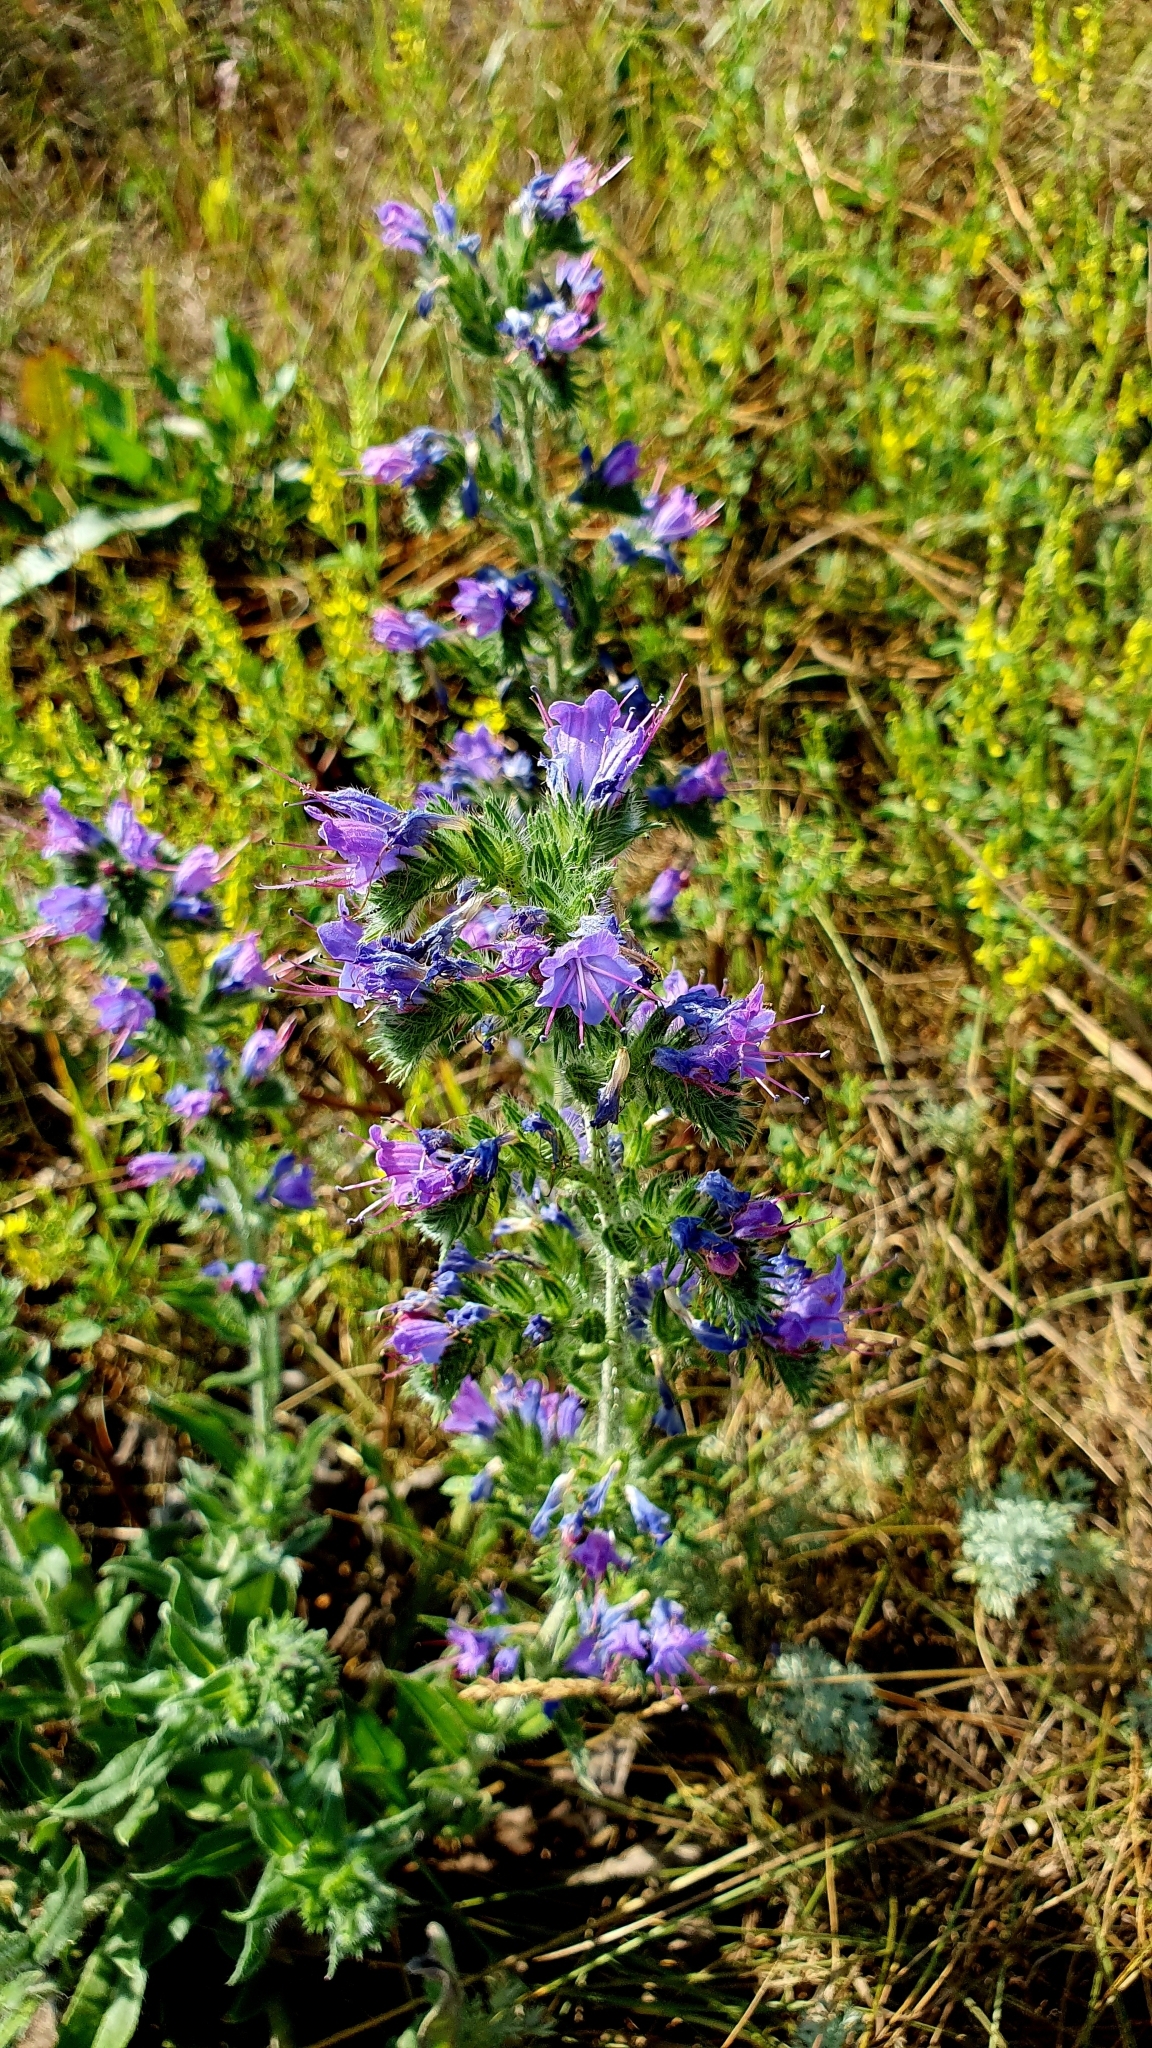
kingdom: Plantae
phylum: Tracheophyta
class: Magnoliopsida
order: Boraginales
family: Boraginaceae
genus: Echium
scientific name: Echium vulgare
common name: Common viper's bugloss
